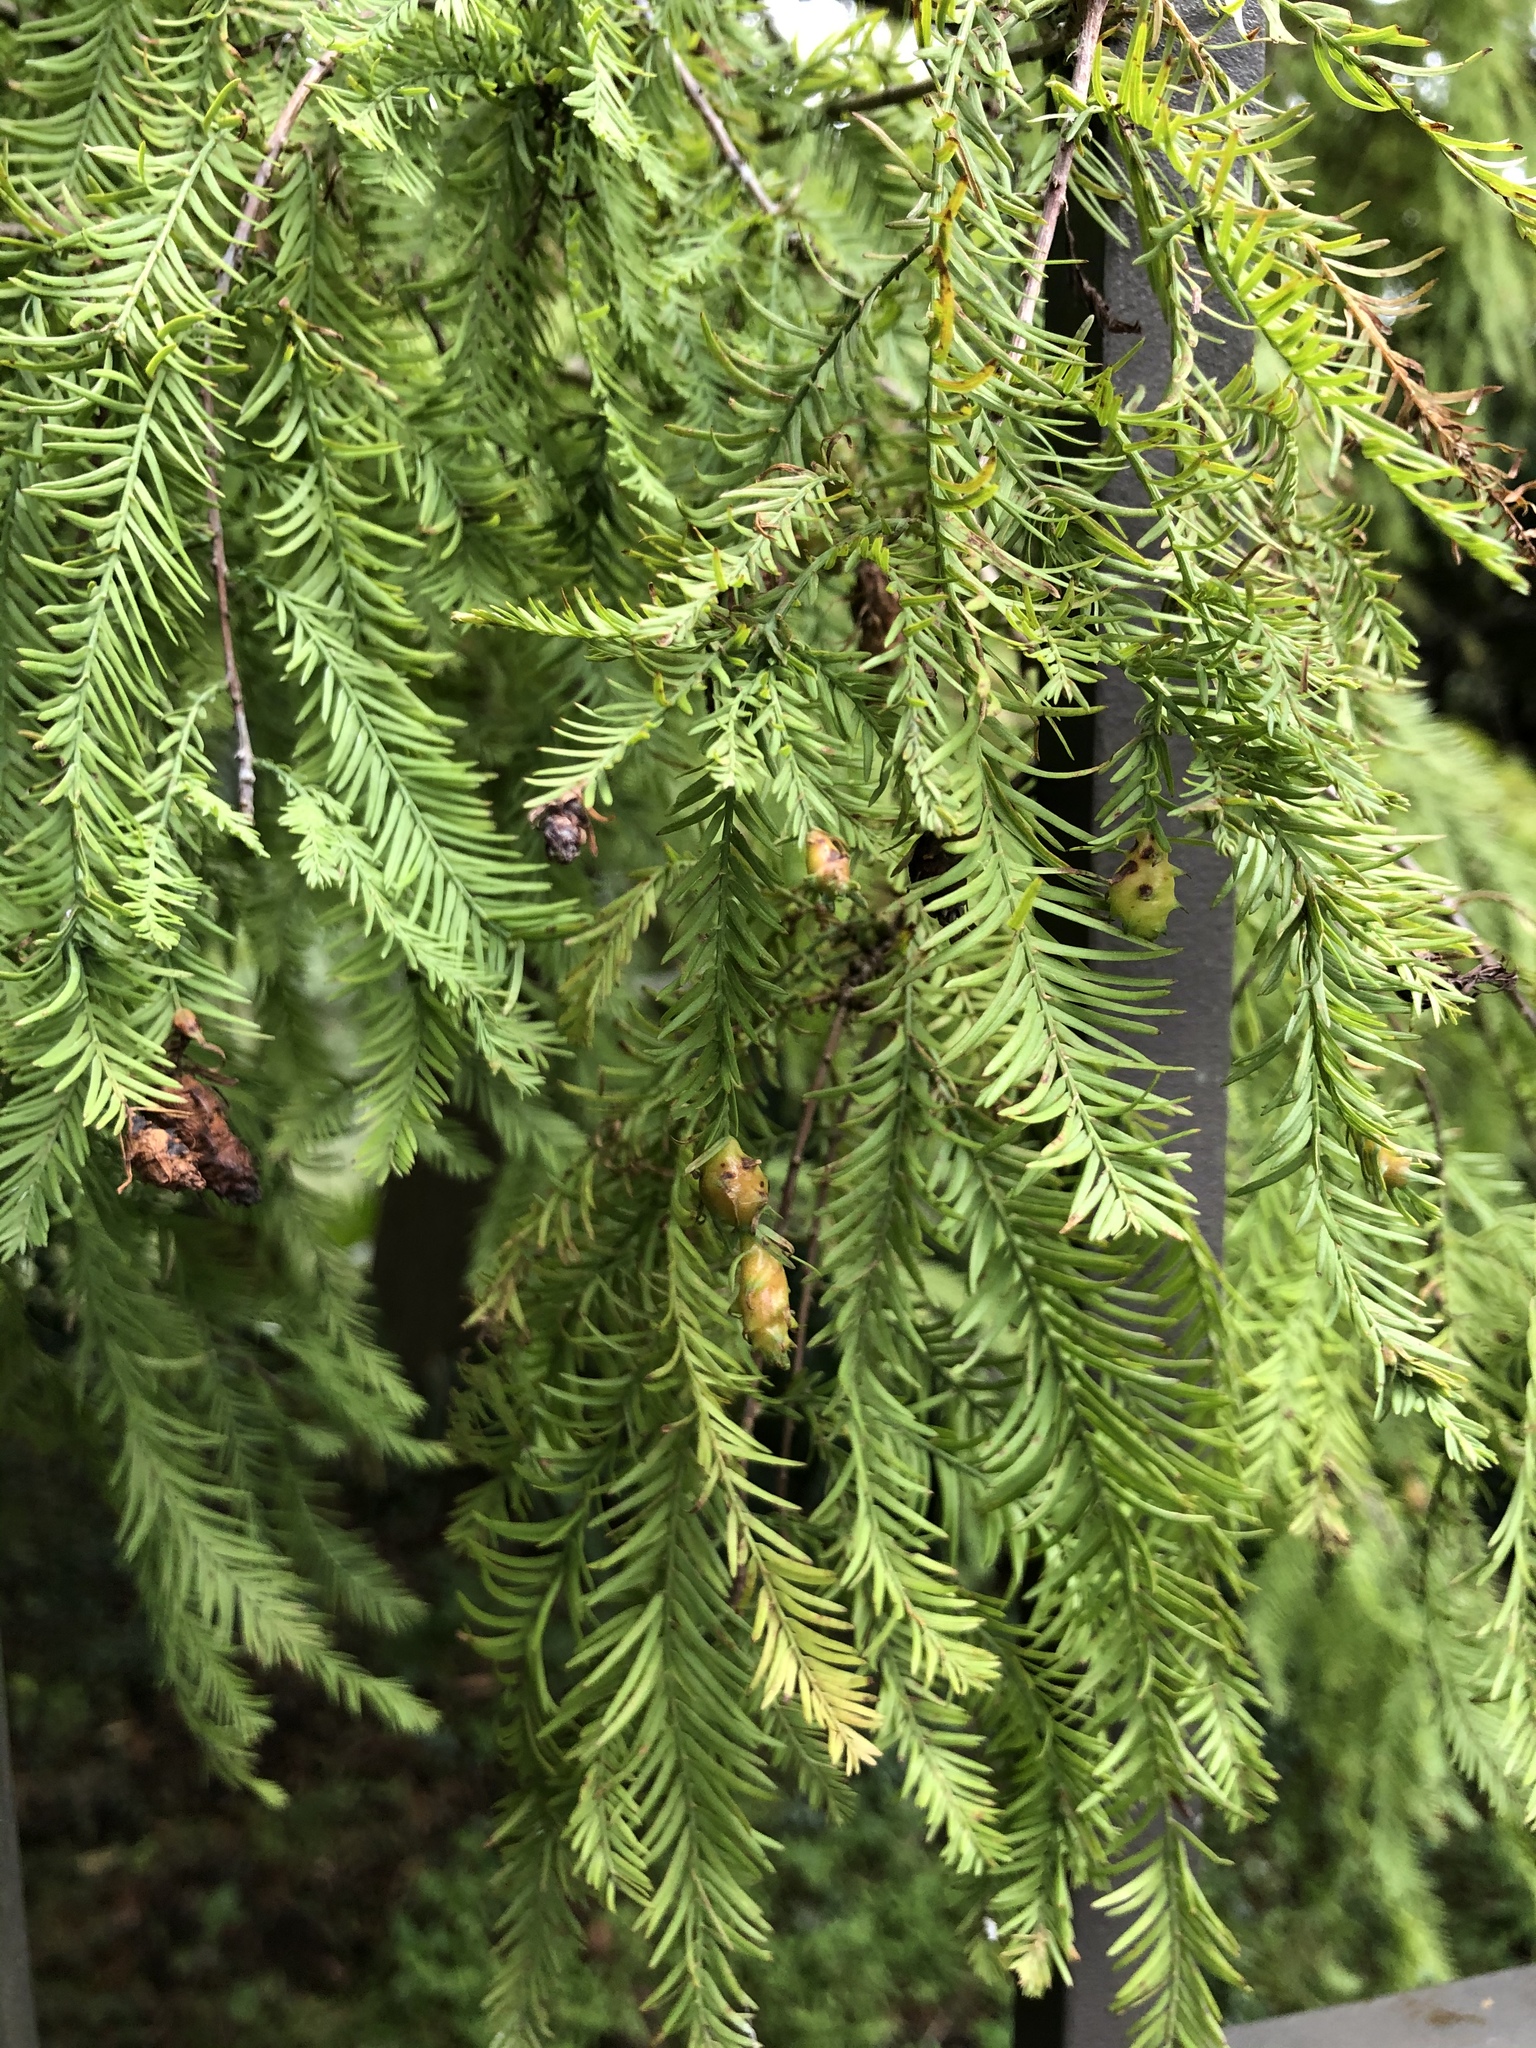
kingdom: Plantae
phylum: Tracheophyta
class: Pinopsida
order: Pinales
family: Cupressaceae
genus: Taxodium
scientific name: Taxodium distichum
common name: Bald cypress
